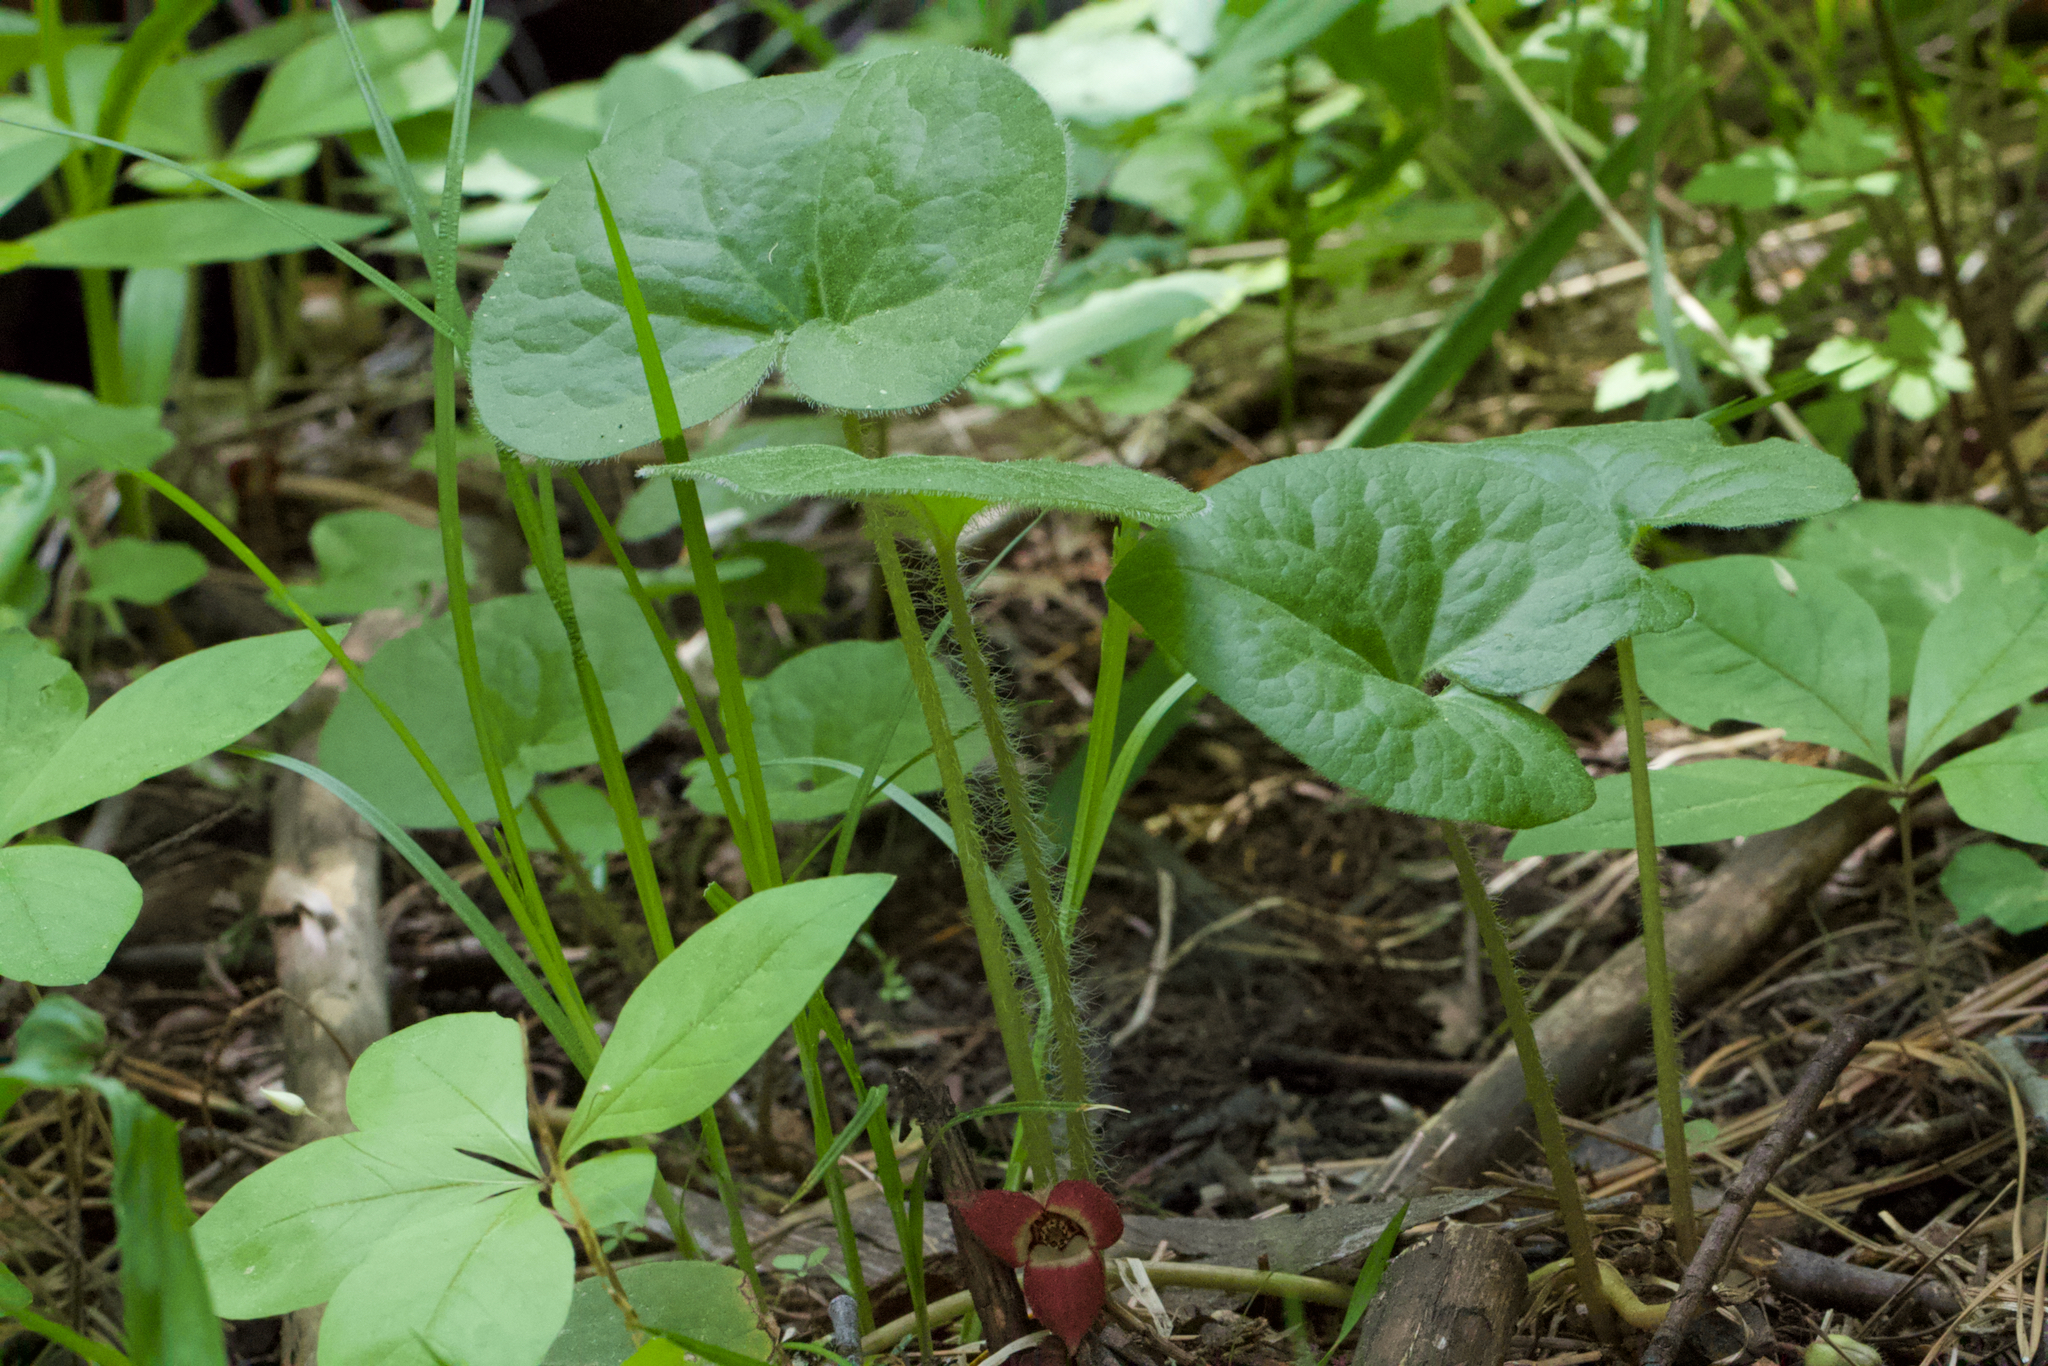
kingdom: Plantae
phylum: Tracheophyta
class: Magnoliopsida
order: Piperales
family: Aristolochiaceae
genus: Asarum
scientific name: Asarum lemmonii
